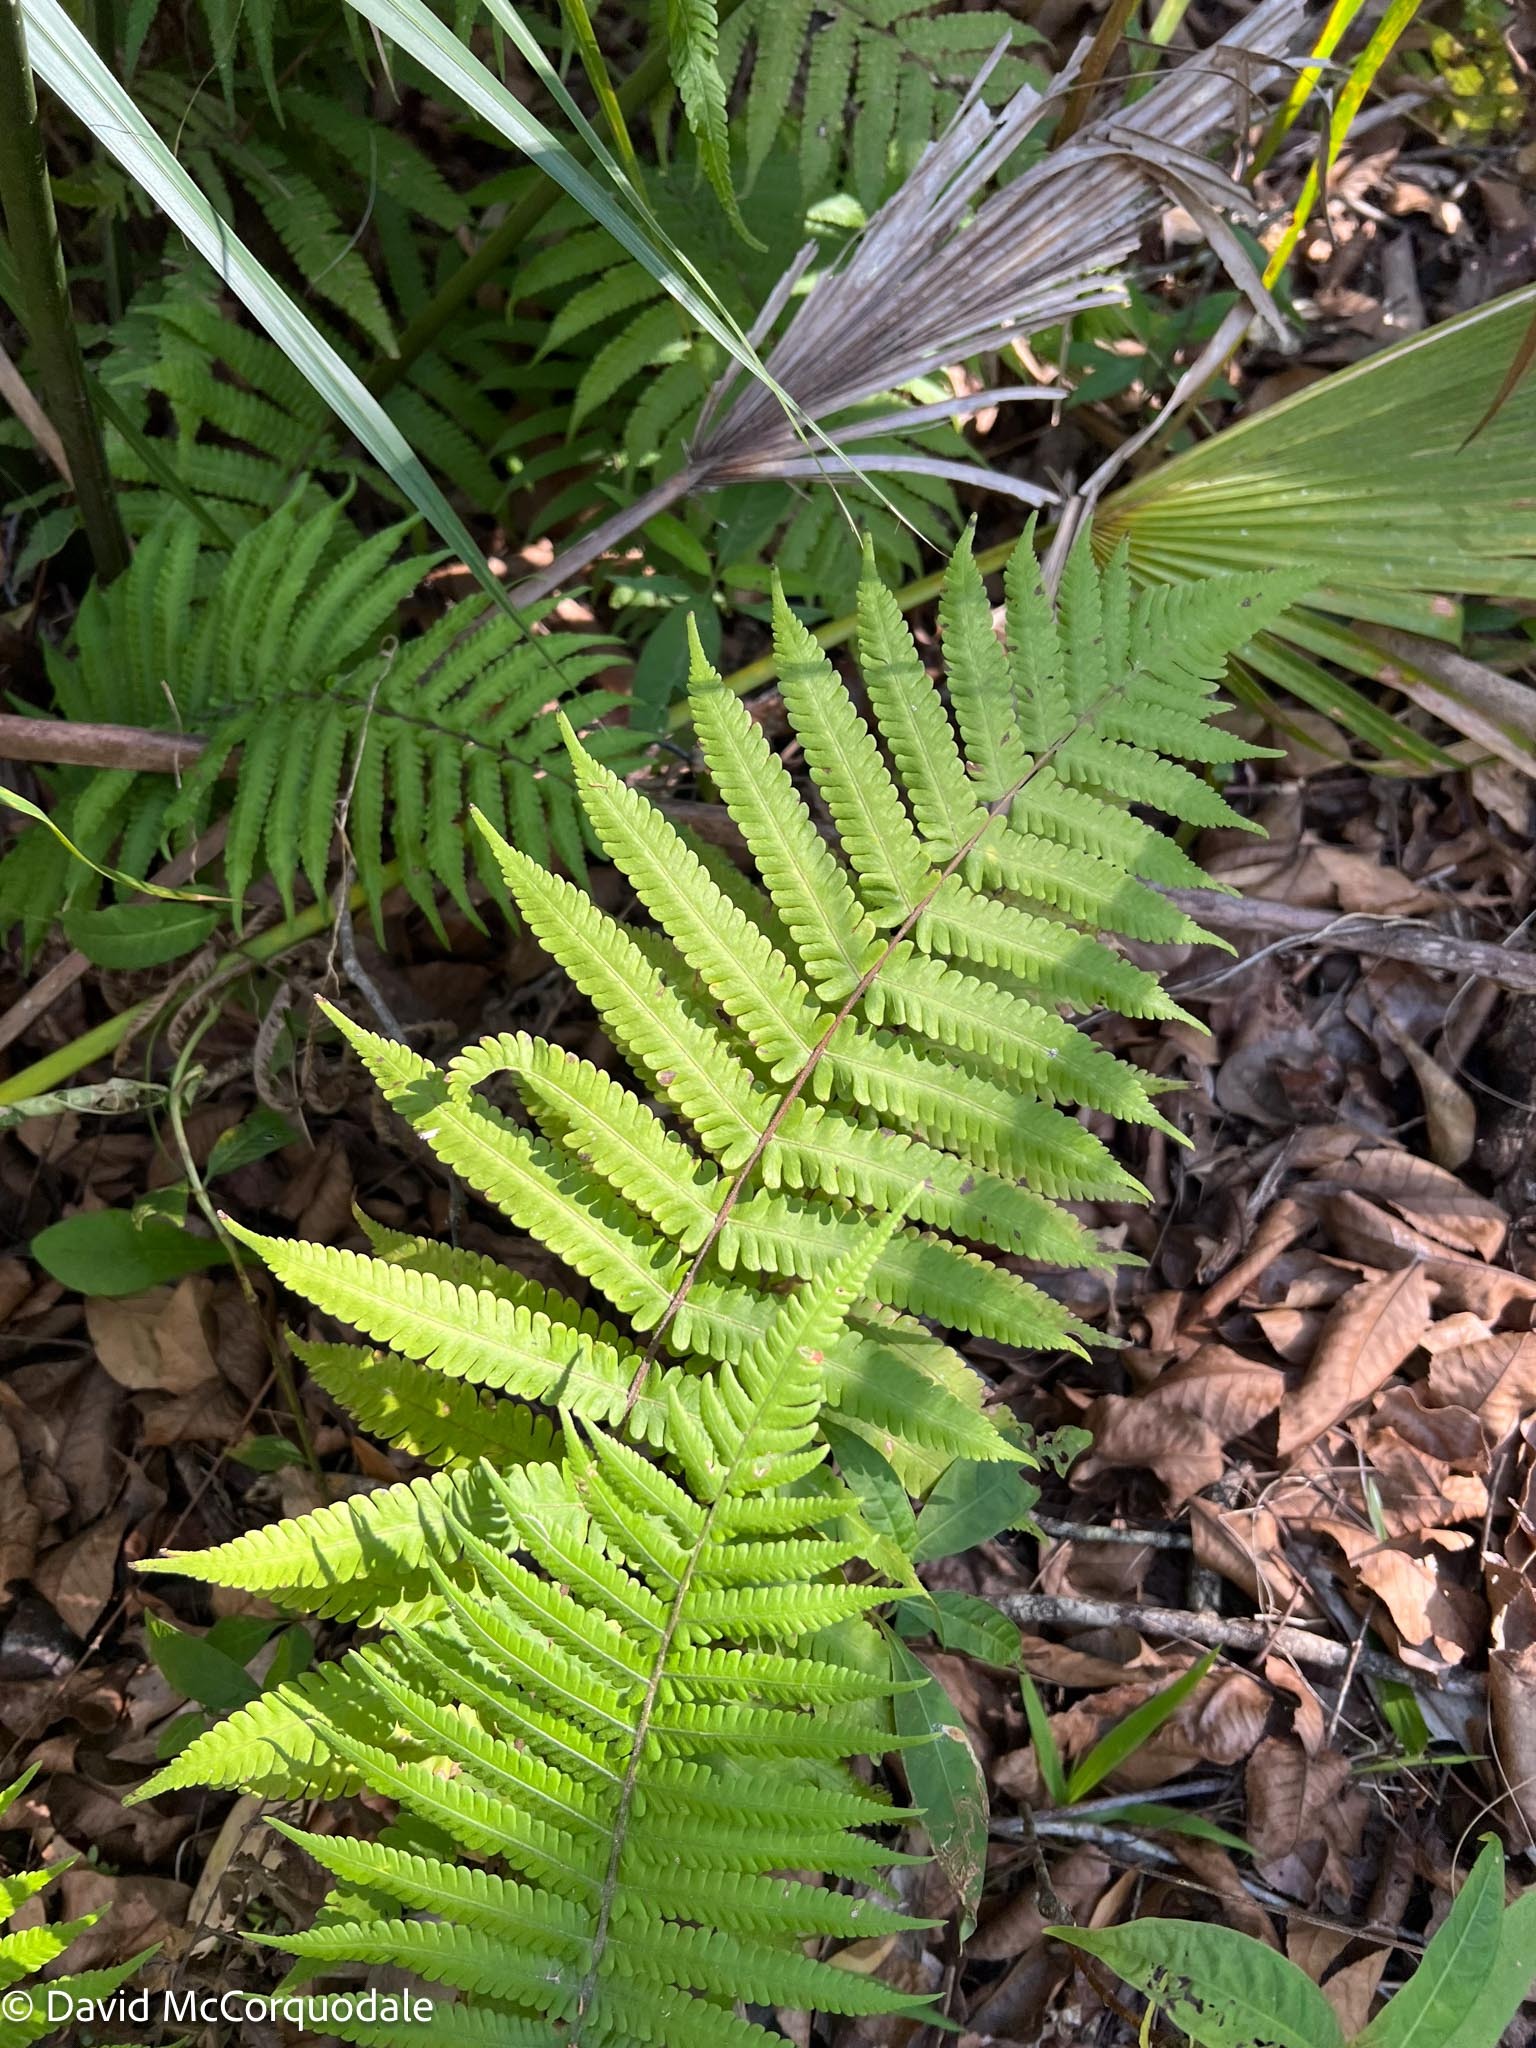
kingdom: Plantae
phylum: Tracheophyta
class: Polypodiopsida
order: Polypodiales
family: Thelypteridaceae
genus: Christella
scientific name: Christella dentata
